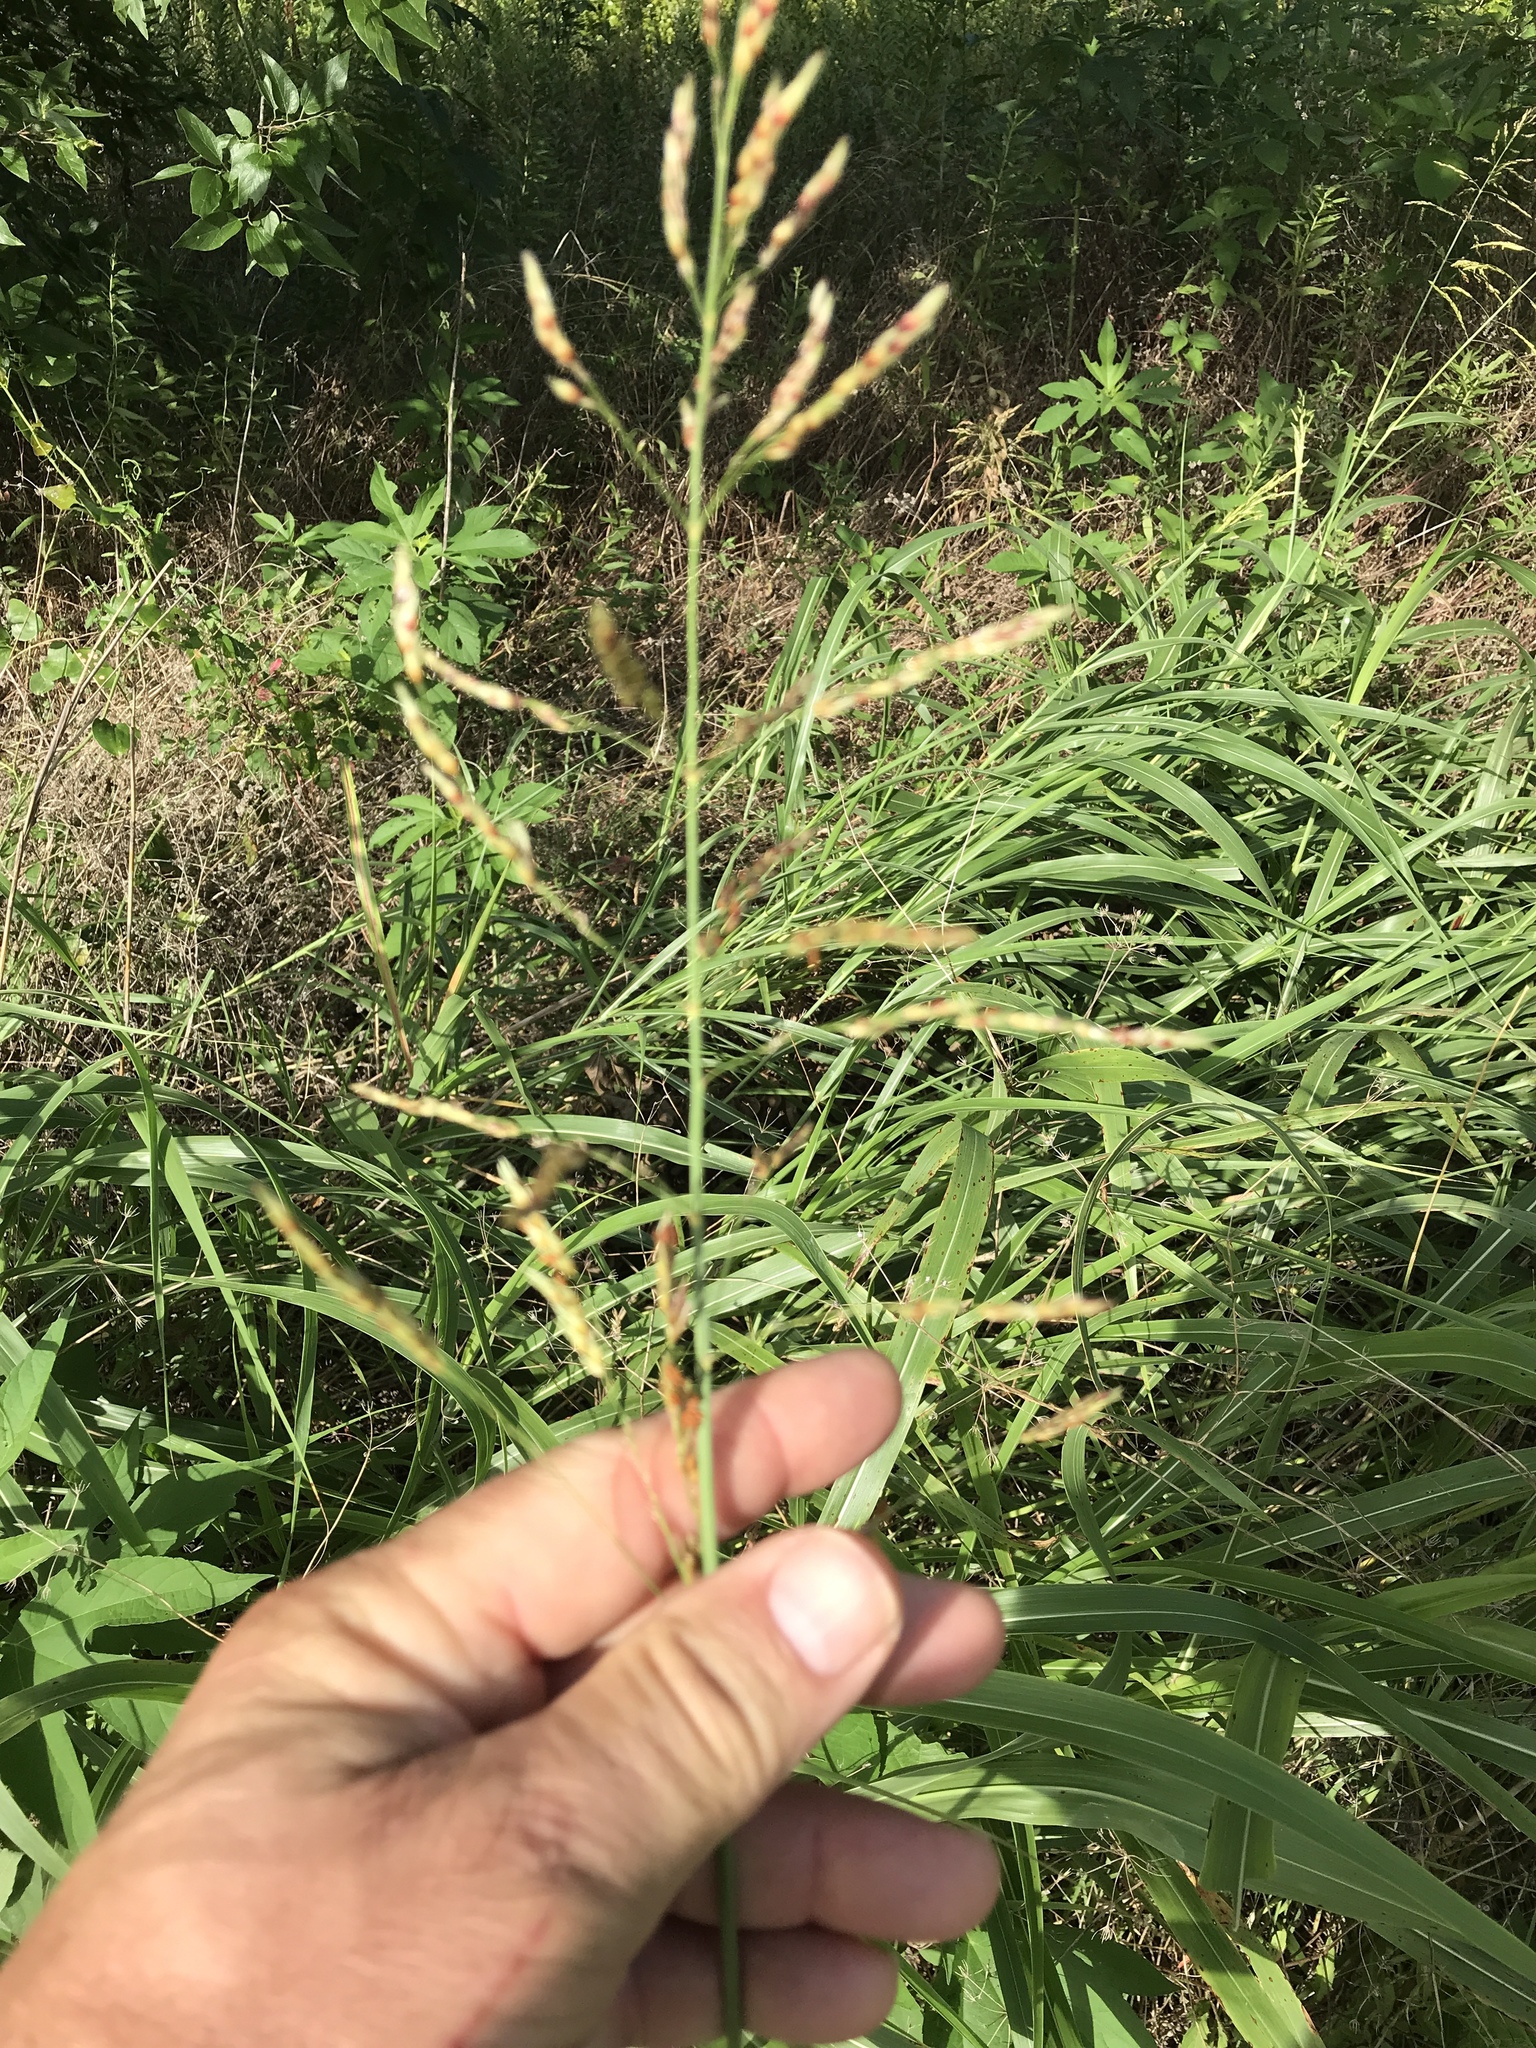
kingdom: Plantae
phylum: Tracheophyta
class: Liliopsida
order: Poales
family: Poaceae
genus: Sorghum
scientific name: Sorghum halepense
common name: Johnson-grass
